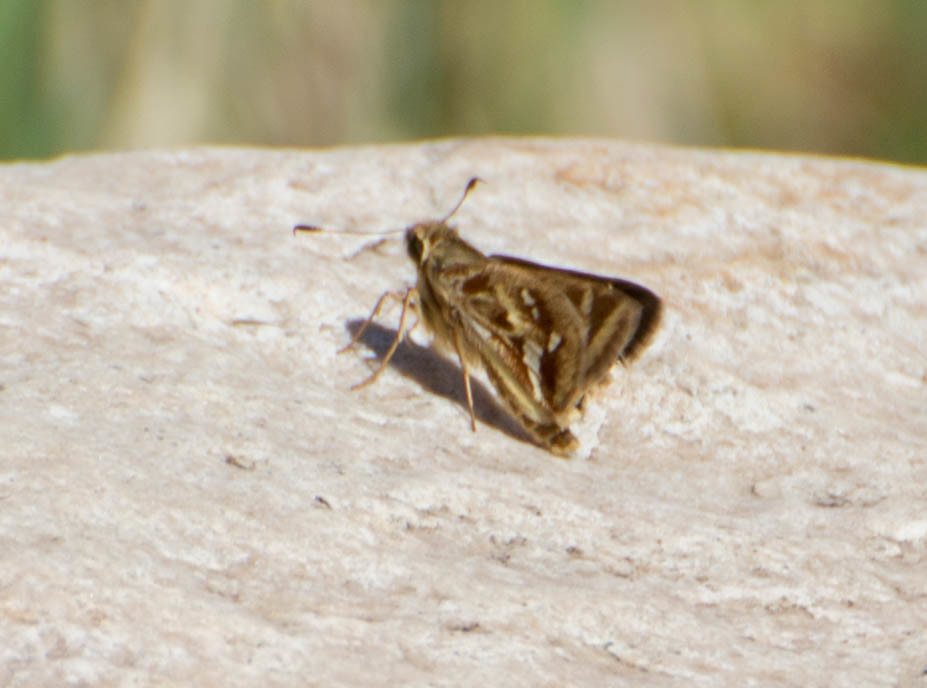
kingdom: Animalia
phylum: Arthropoda
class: Insecta
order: Lepidoptera
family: Hesperiidae
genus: Thespieus
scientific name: Thespieus catochra
